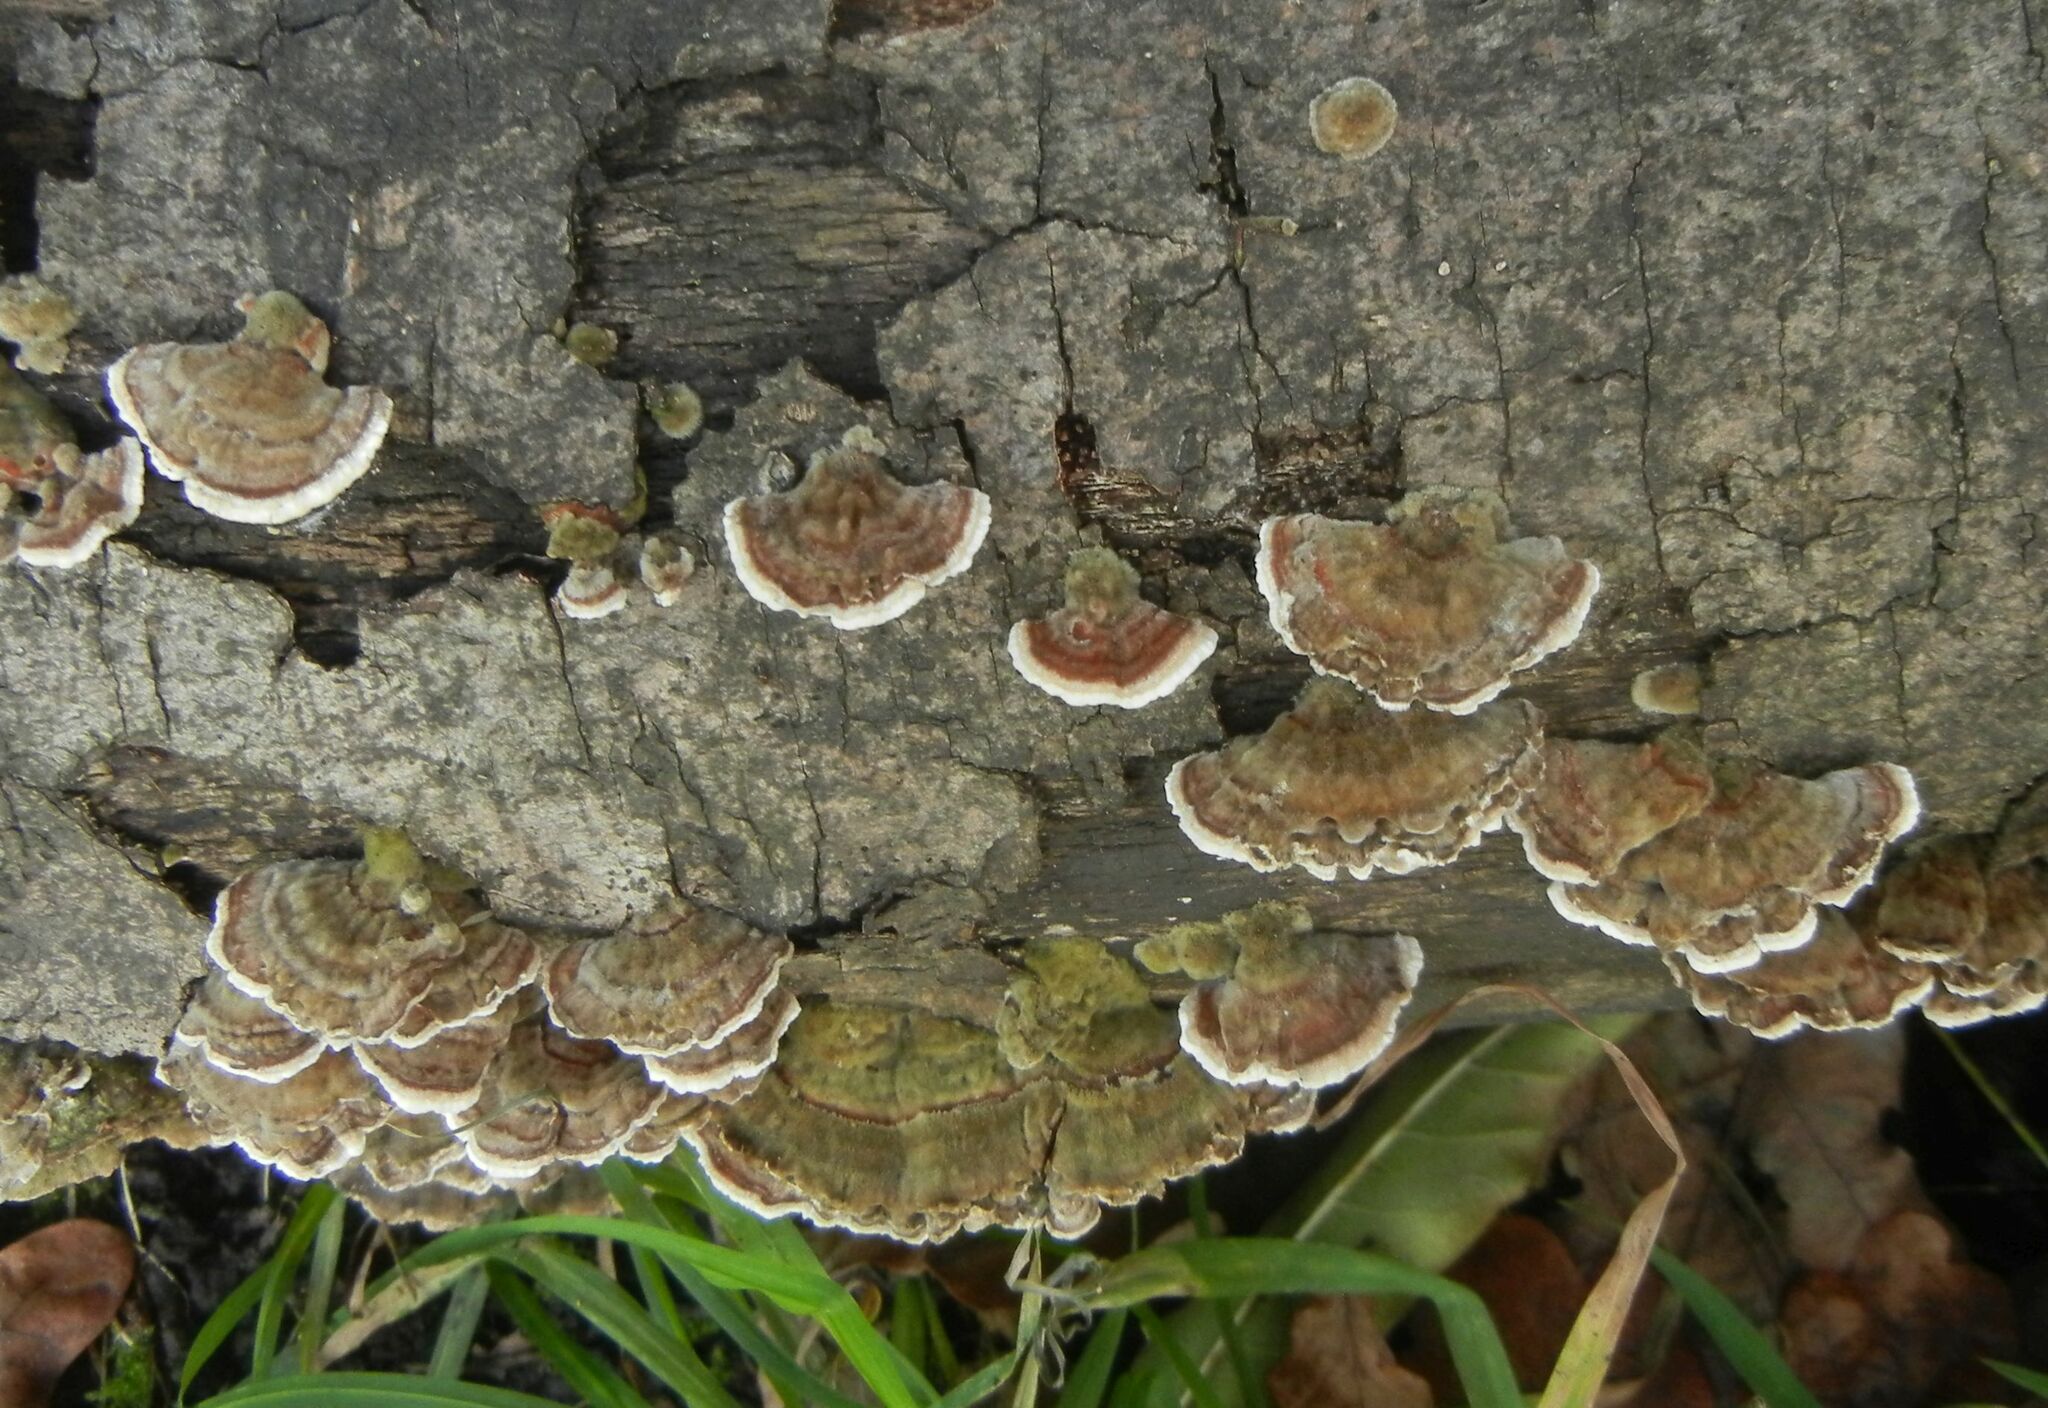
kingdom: Fungi
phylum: Basidiomycota
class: Agaricomycetes
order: Polyporales
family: Polyporaceae
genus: Trametes
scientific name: Trametes versicolor
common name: Turkeytail
